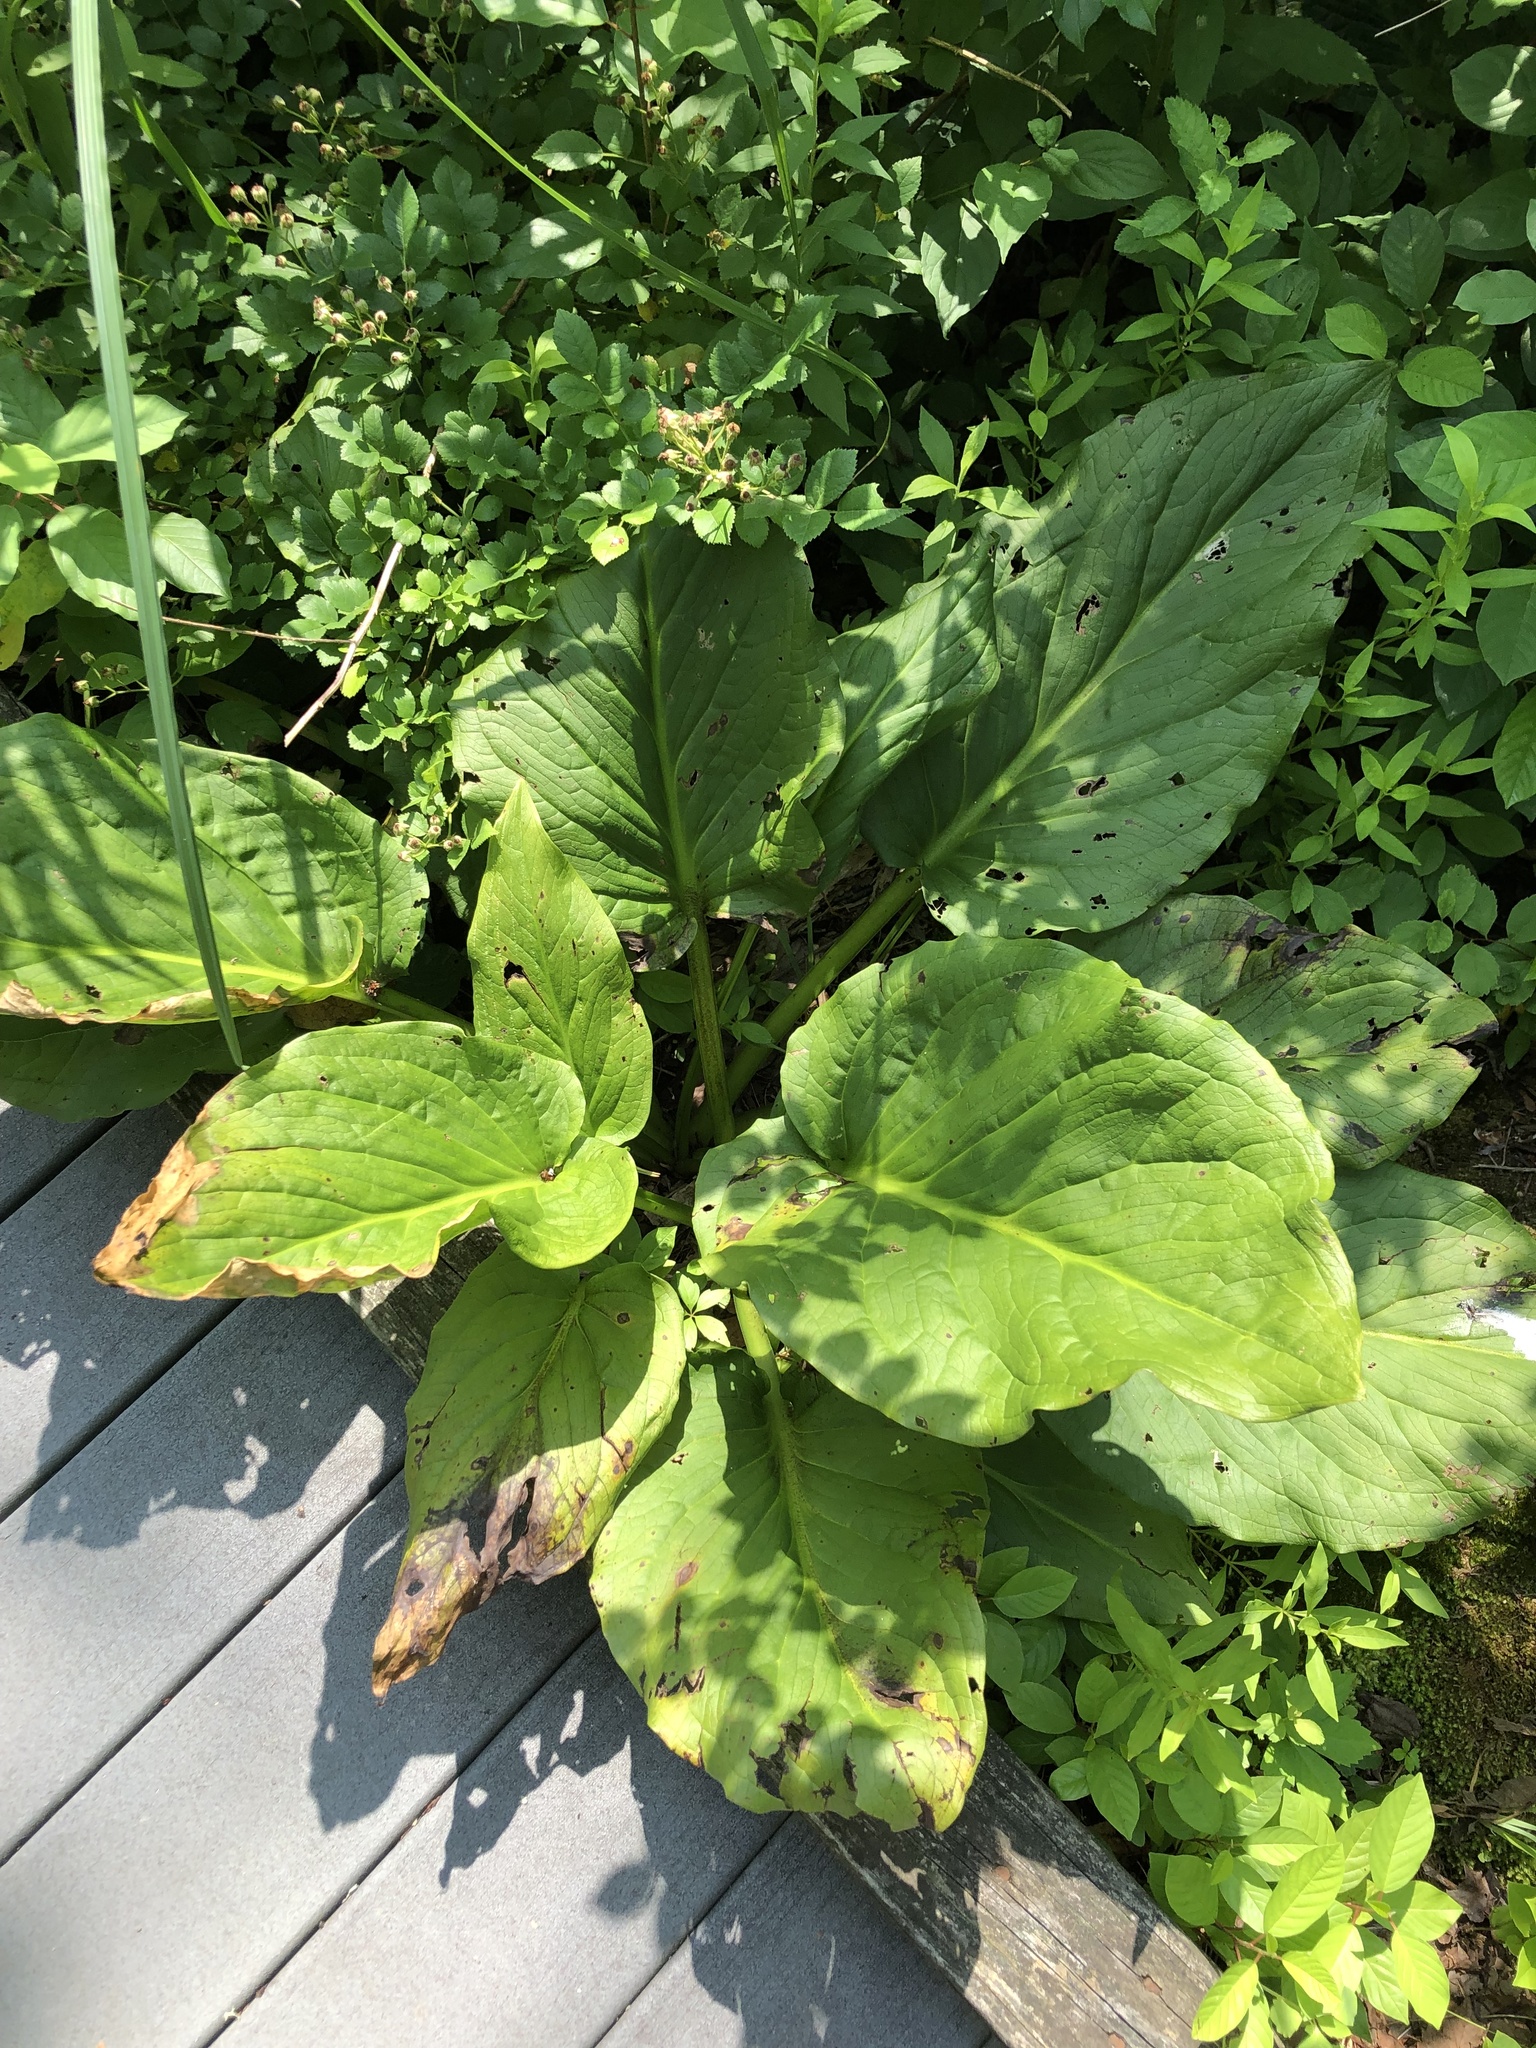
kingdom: Plantae
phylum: Tracheophyta
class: Liliopsida
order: Alismatales
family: Araceae
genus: Symplocarpus
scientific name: Symplocarpus foetidus
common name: Eastern skunk cabbage
